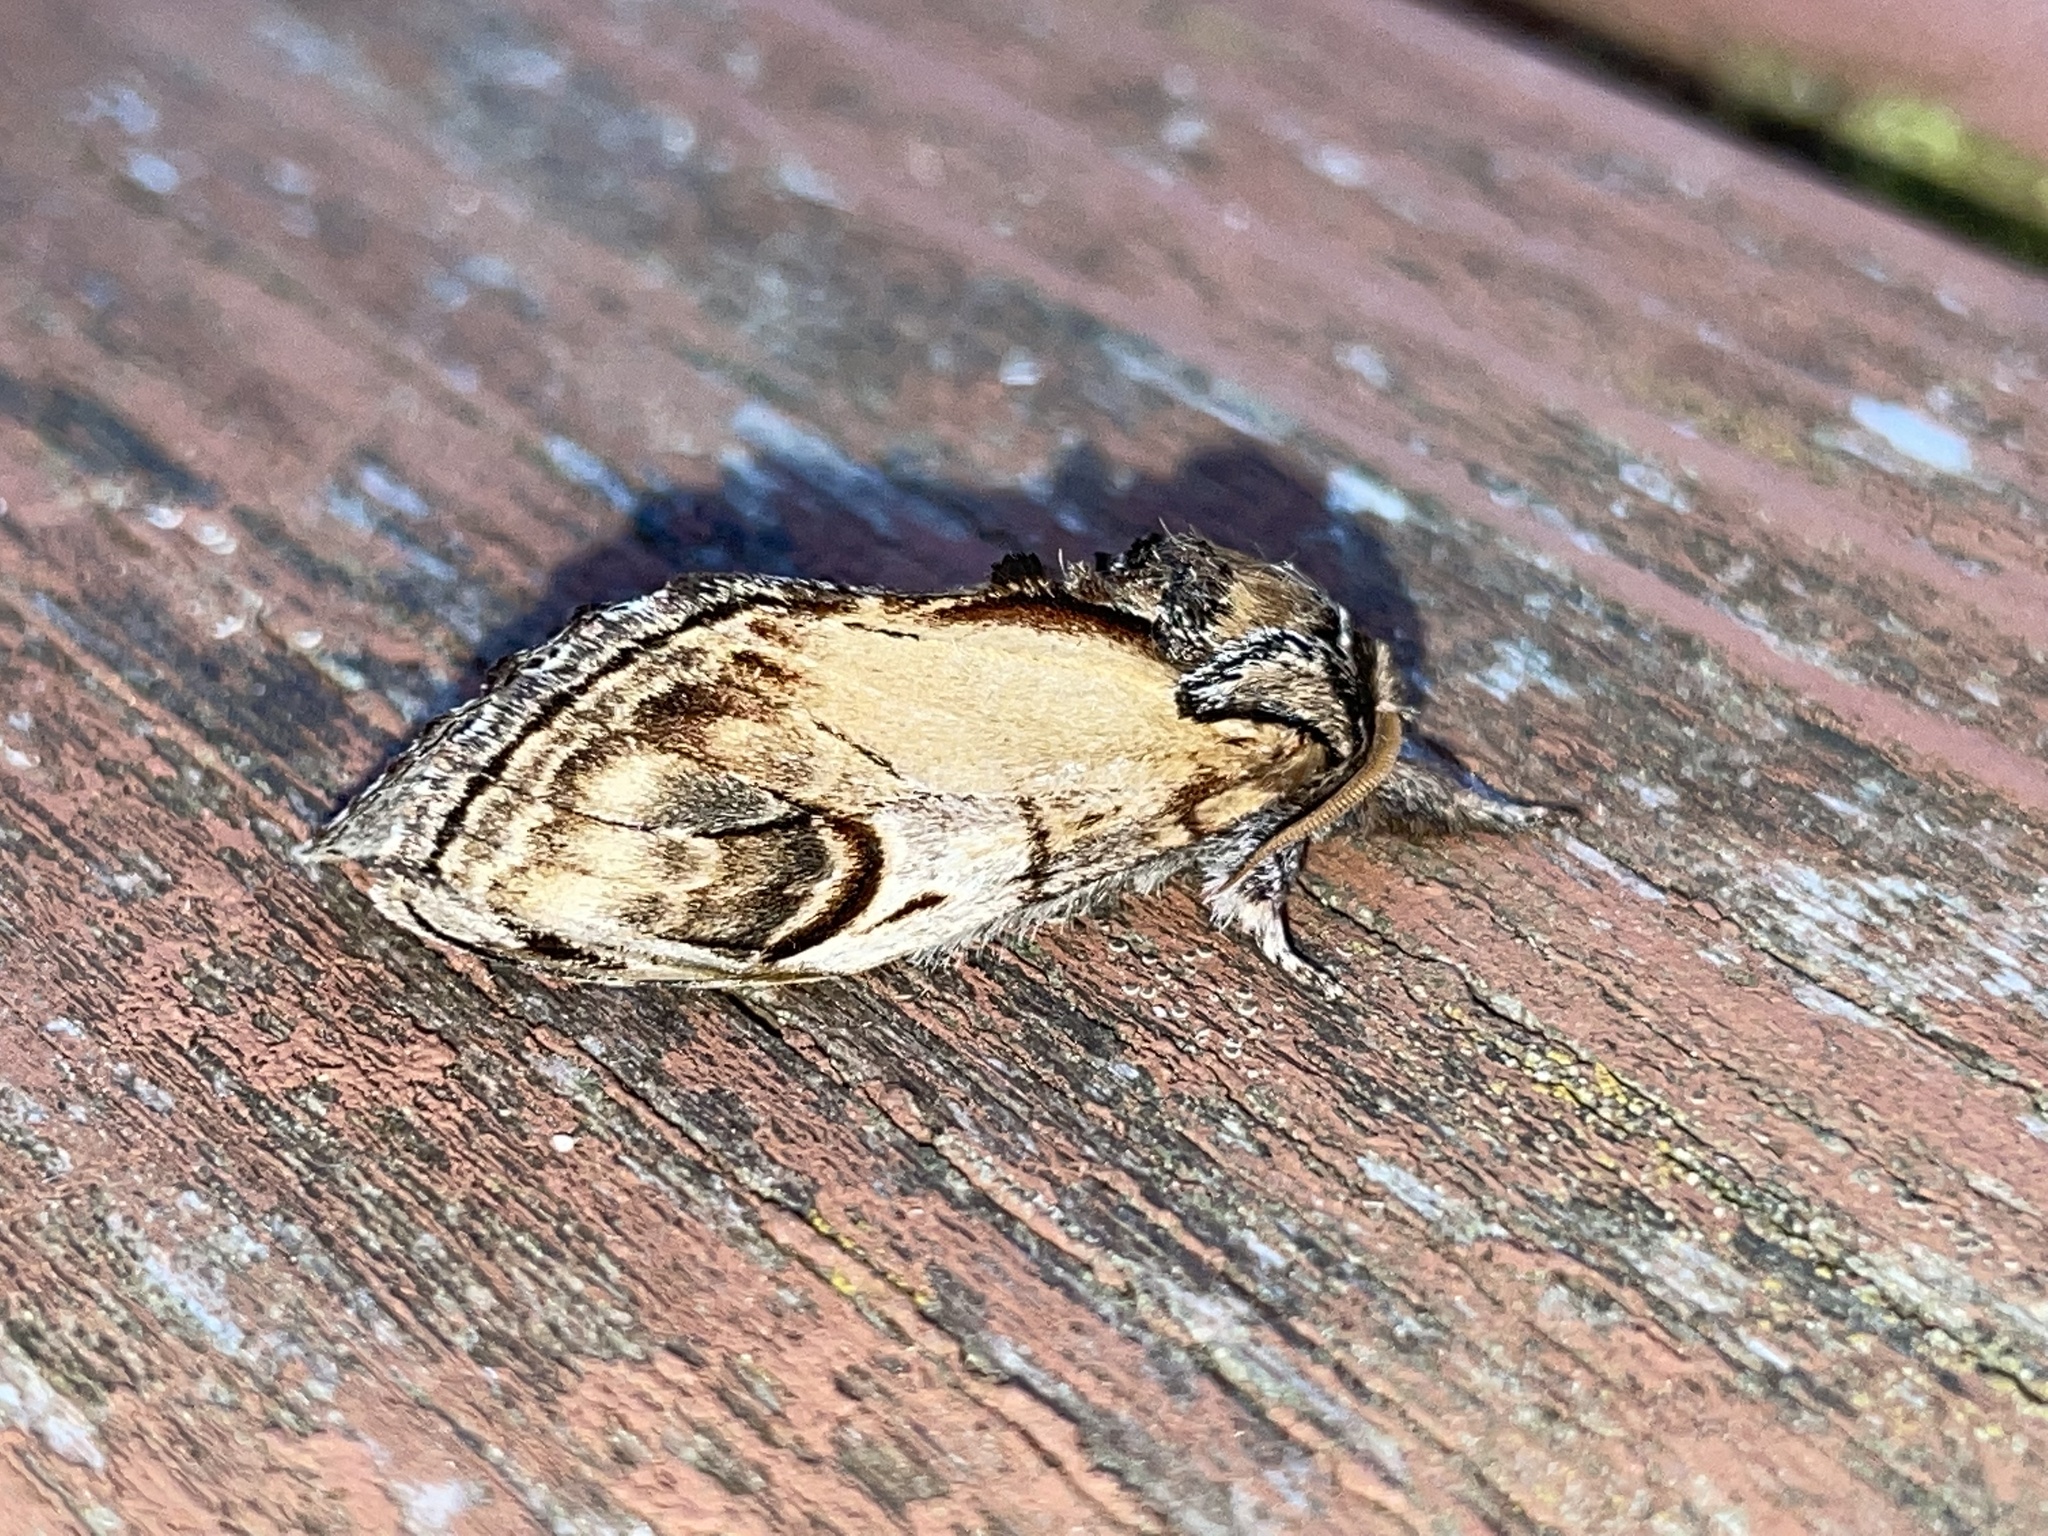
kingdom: Animalia
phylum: Arthropoda
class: Insecta
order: Lepidoptera
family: Notodontidae
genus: Notodonta
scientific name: Notodonta ziczac
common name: Pebble prominent
